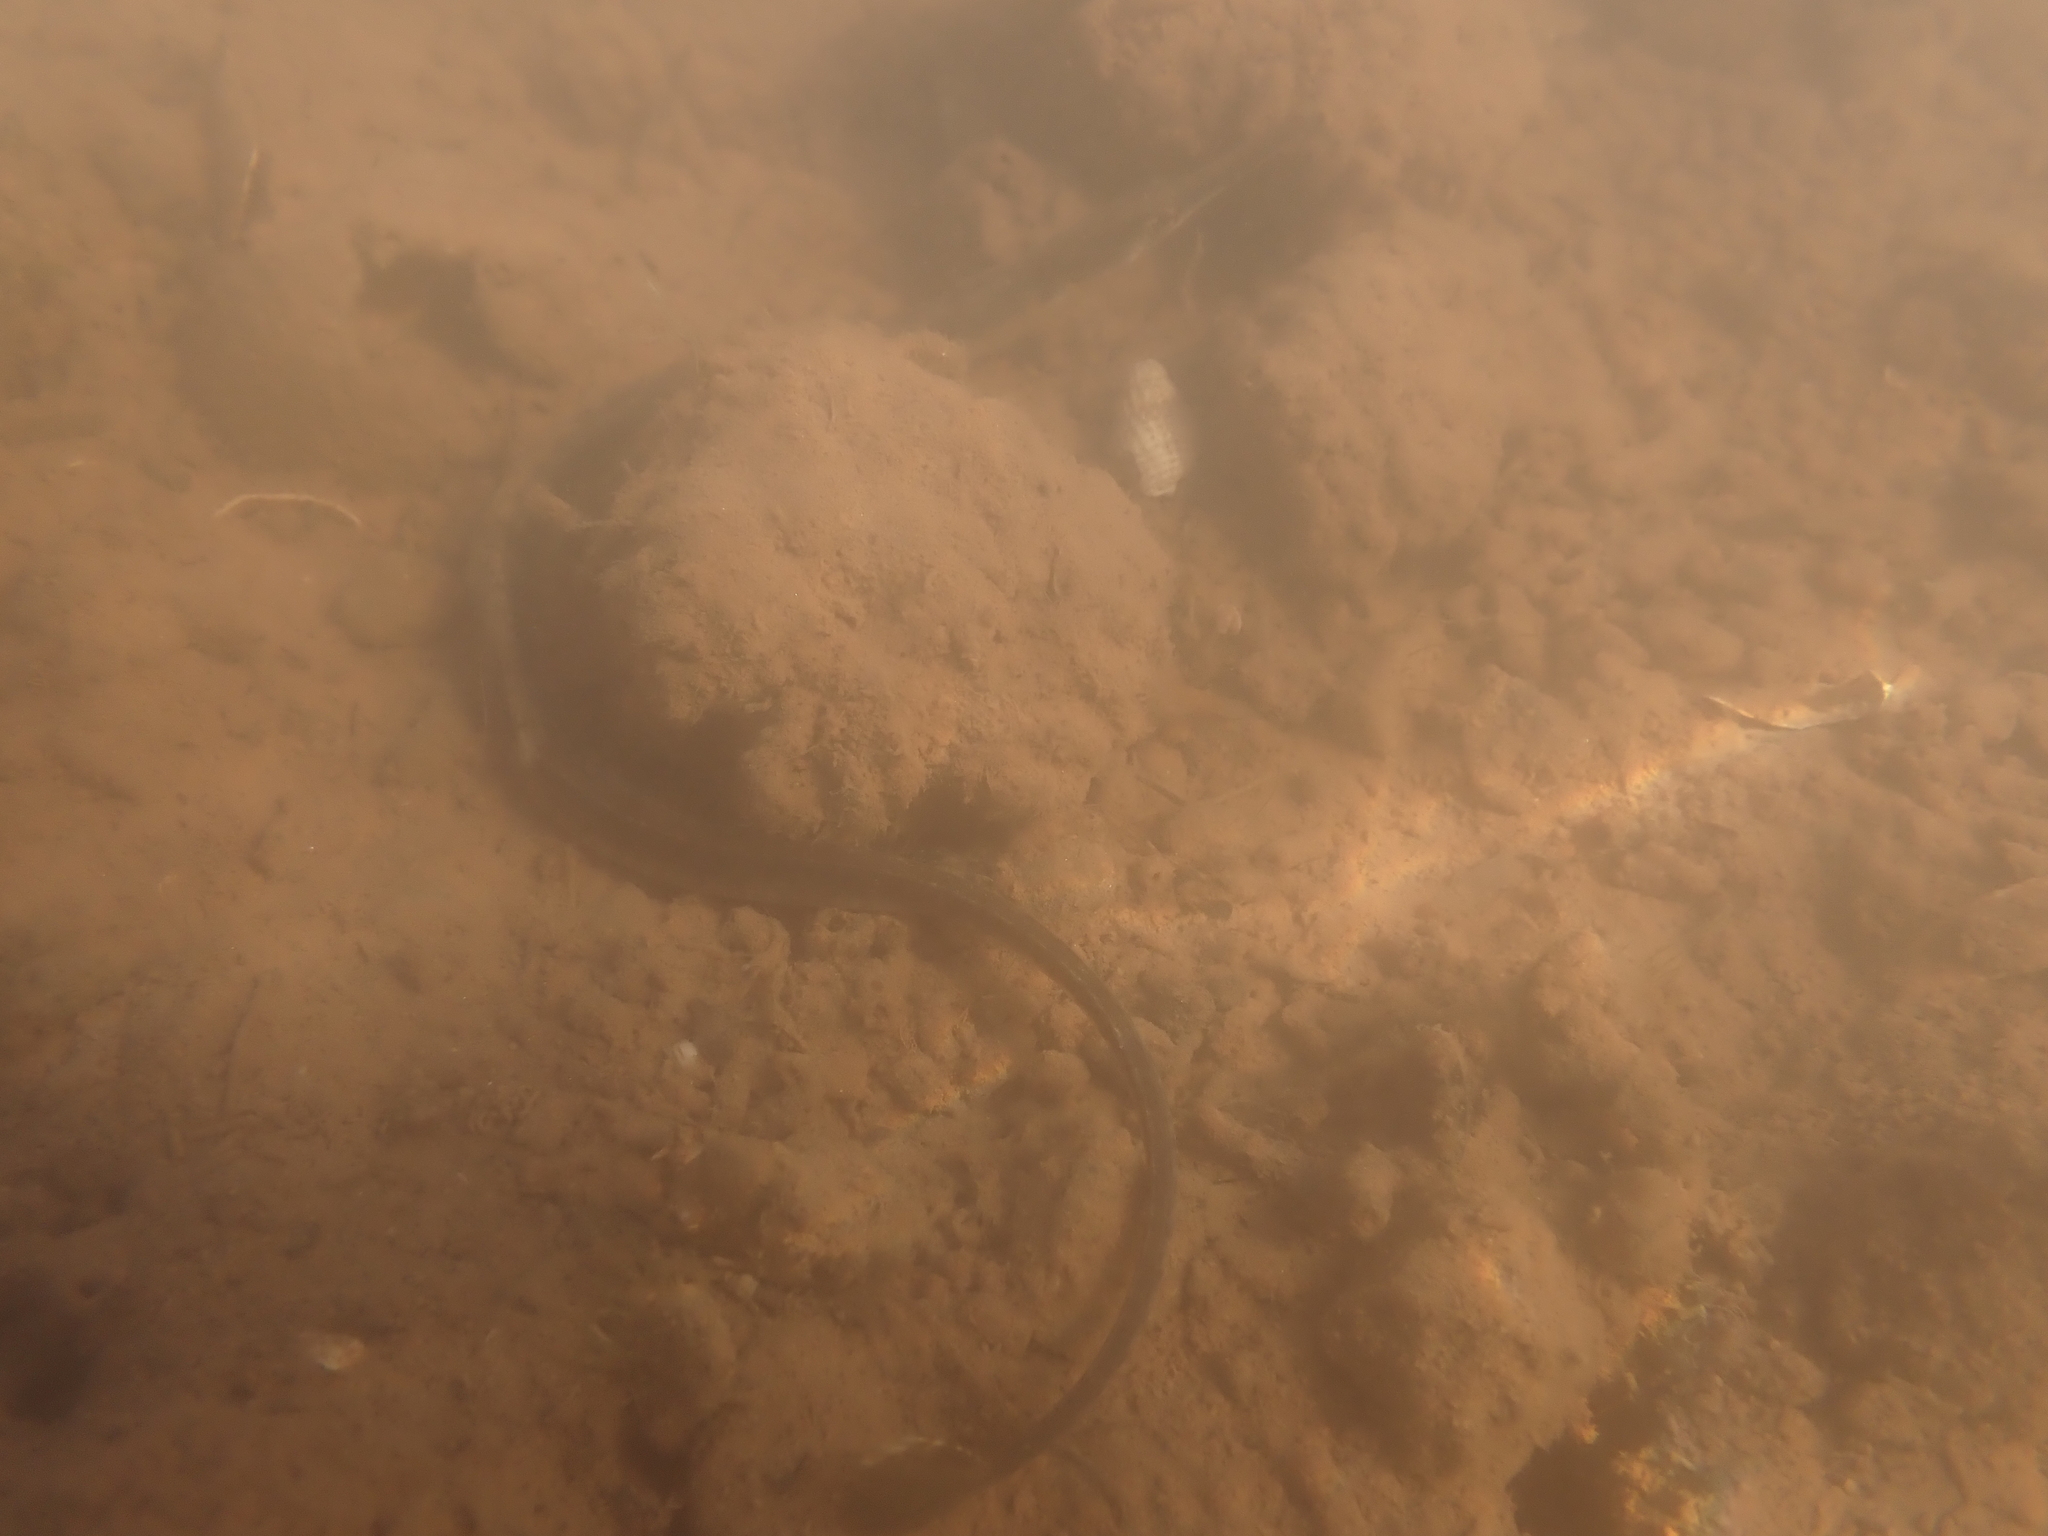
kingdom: Animalia
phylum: Chordata
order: Syngnathiformes
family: Syngnathidae
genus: Syngnathus
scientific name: Syngnathus fuscus
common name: Northern pipefish
